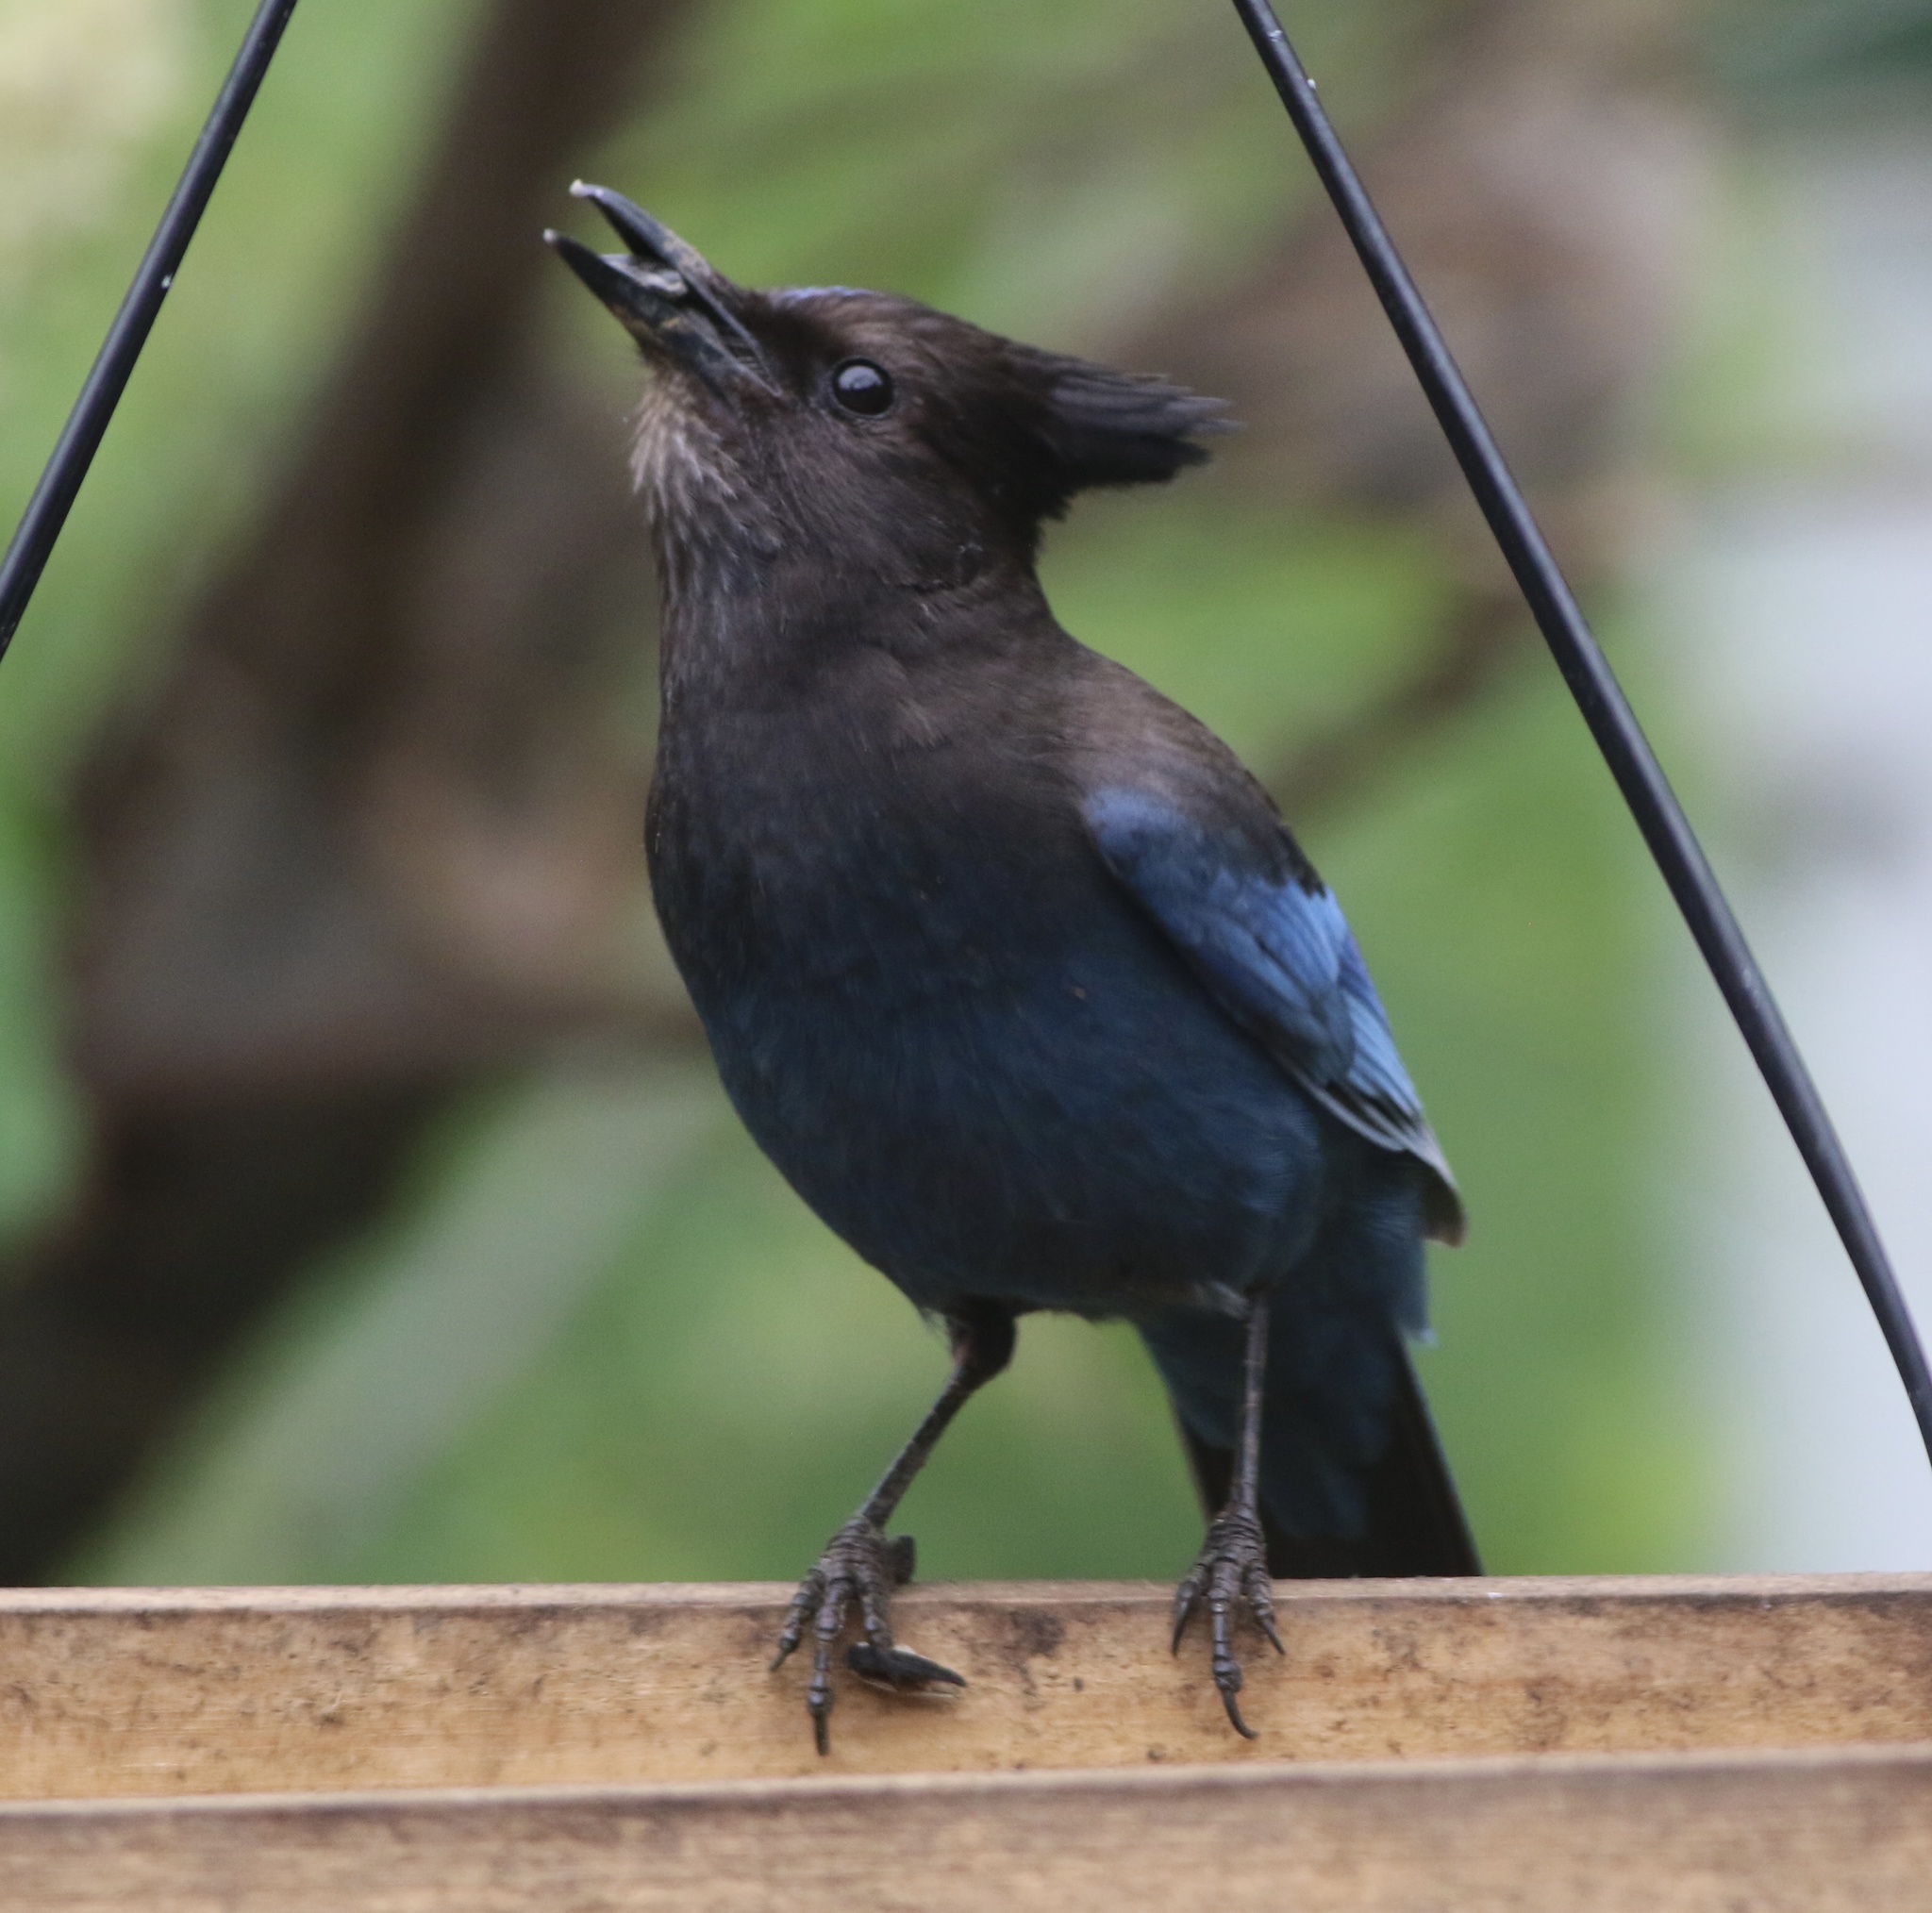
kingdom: Animalia
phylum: Chordata
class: Aves
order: Passeriformes
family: Corvidae
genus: Cyanocitta
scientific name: Cyanocitta stelleri
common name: Steller's jay
